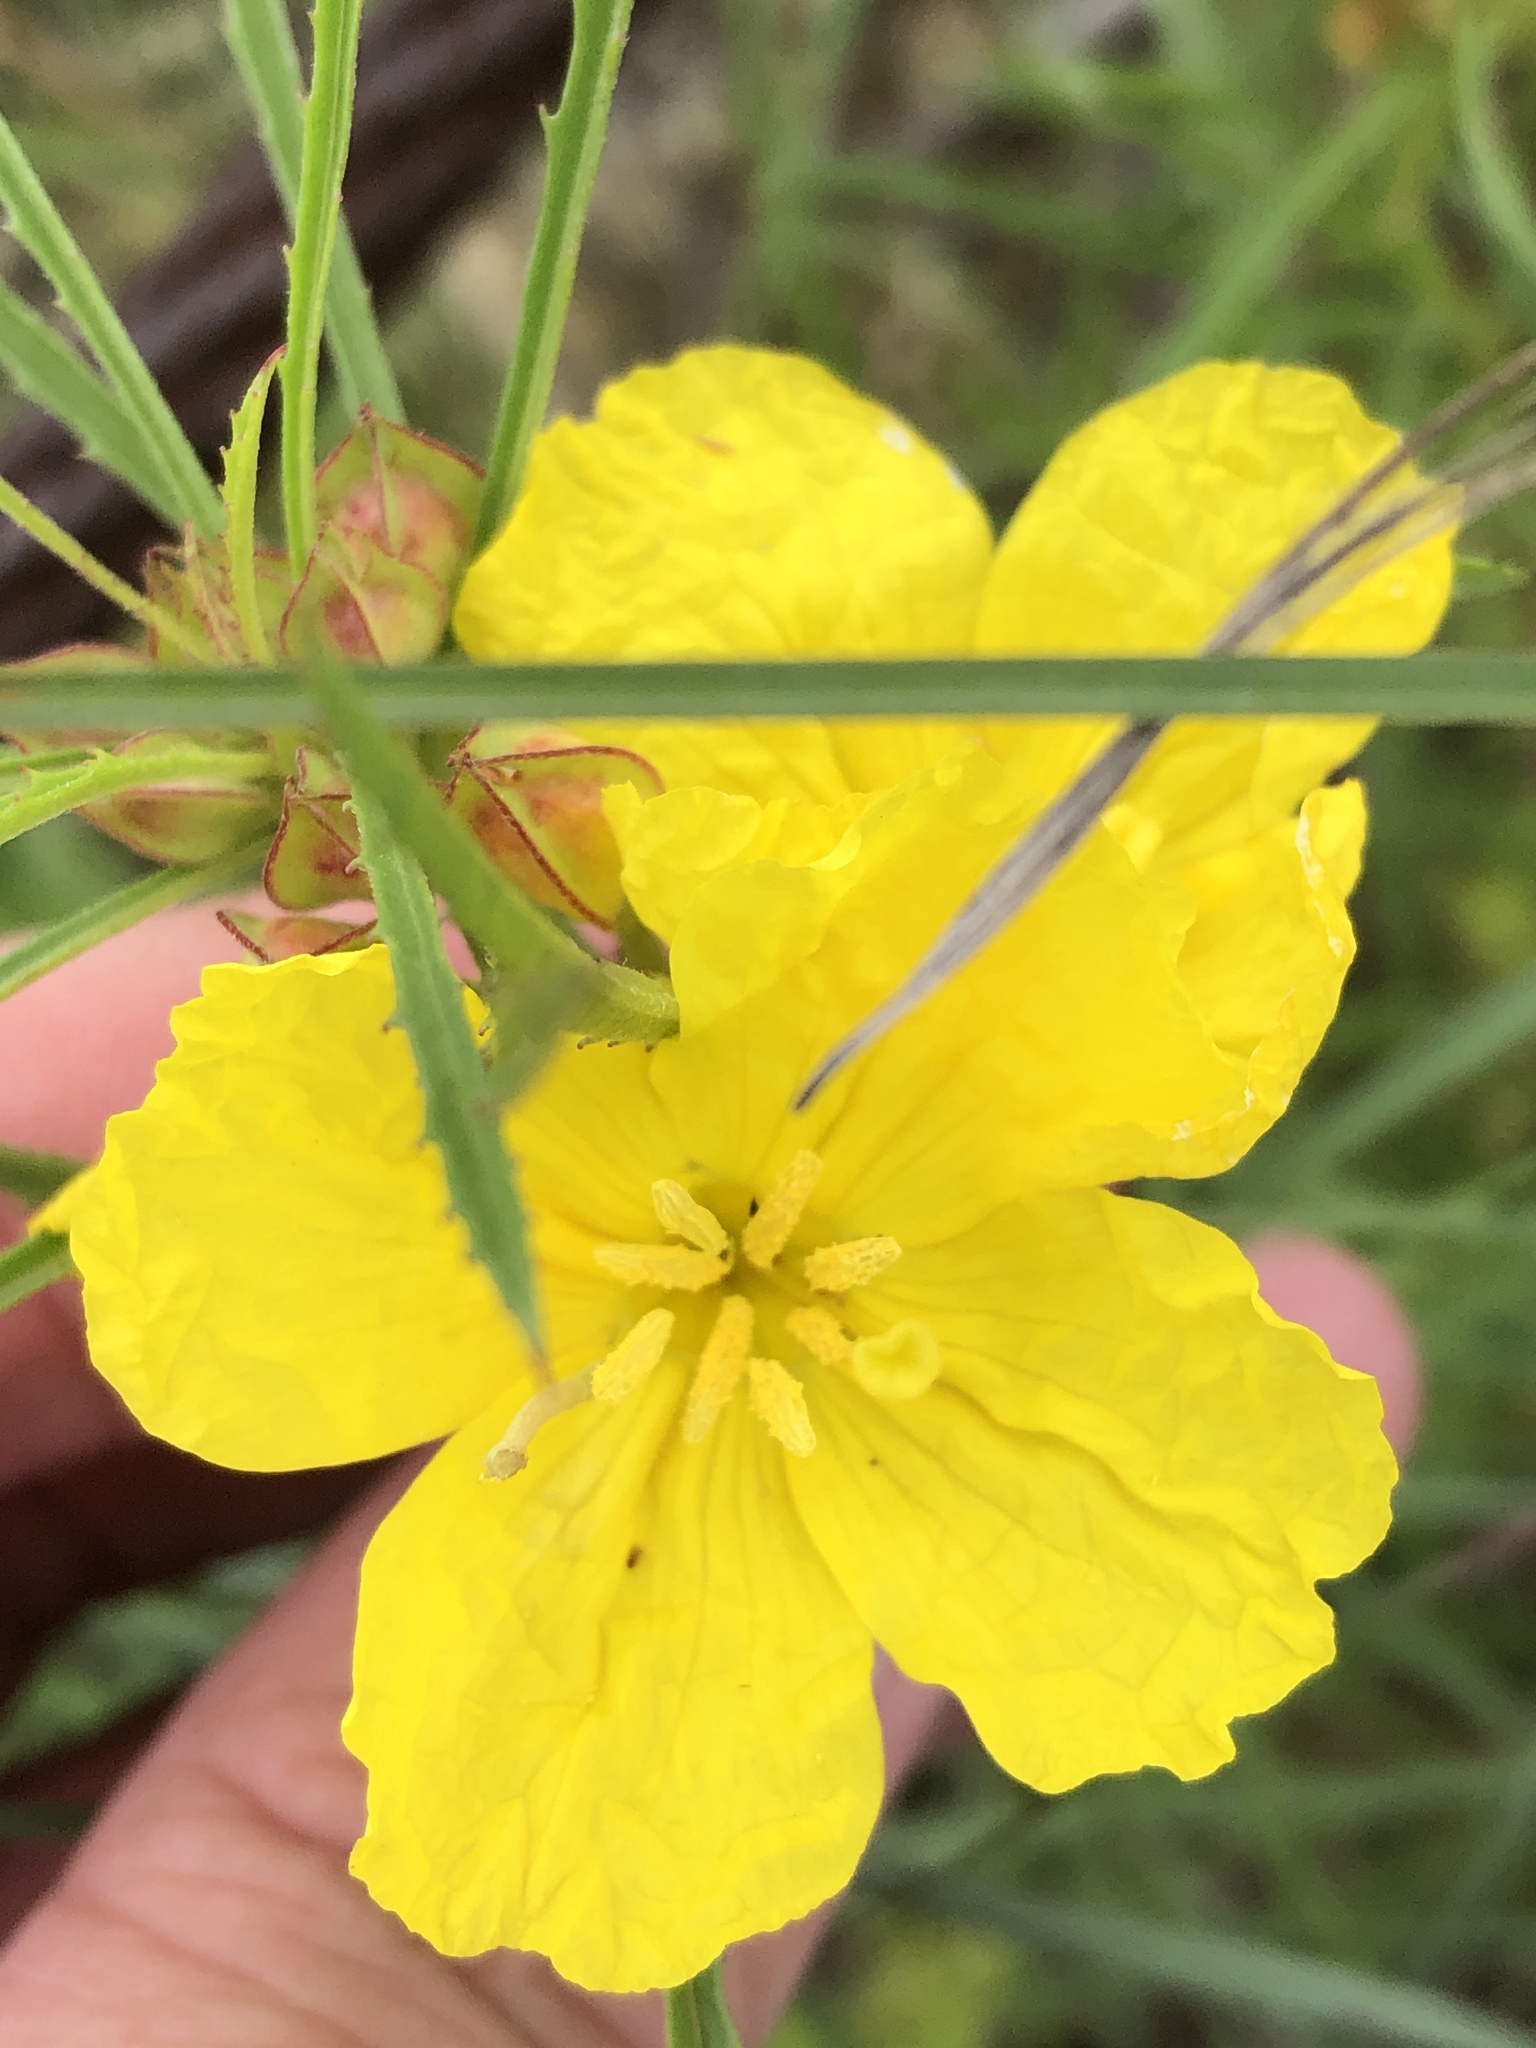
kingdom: Plantae
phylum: Tracheophyta
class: Magnoliopsida
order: Myrtales
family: Onagraceae
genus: Oenothera
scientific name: Oenothera
